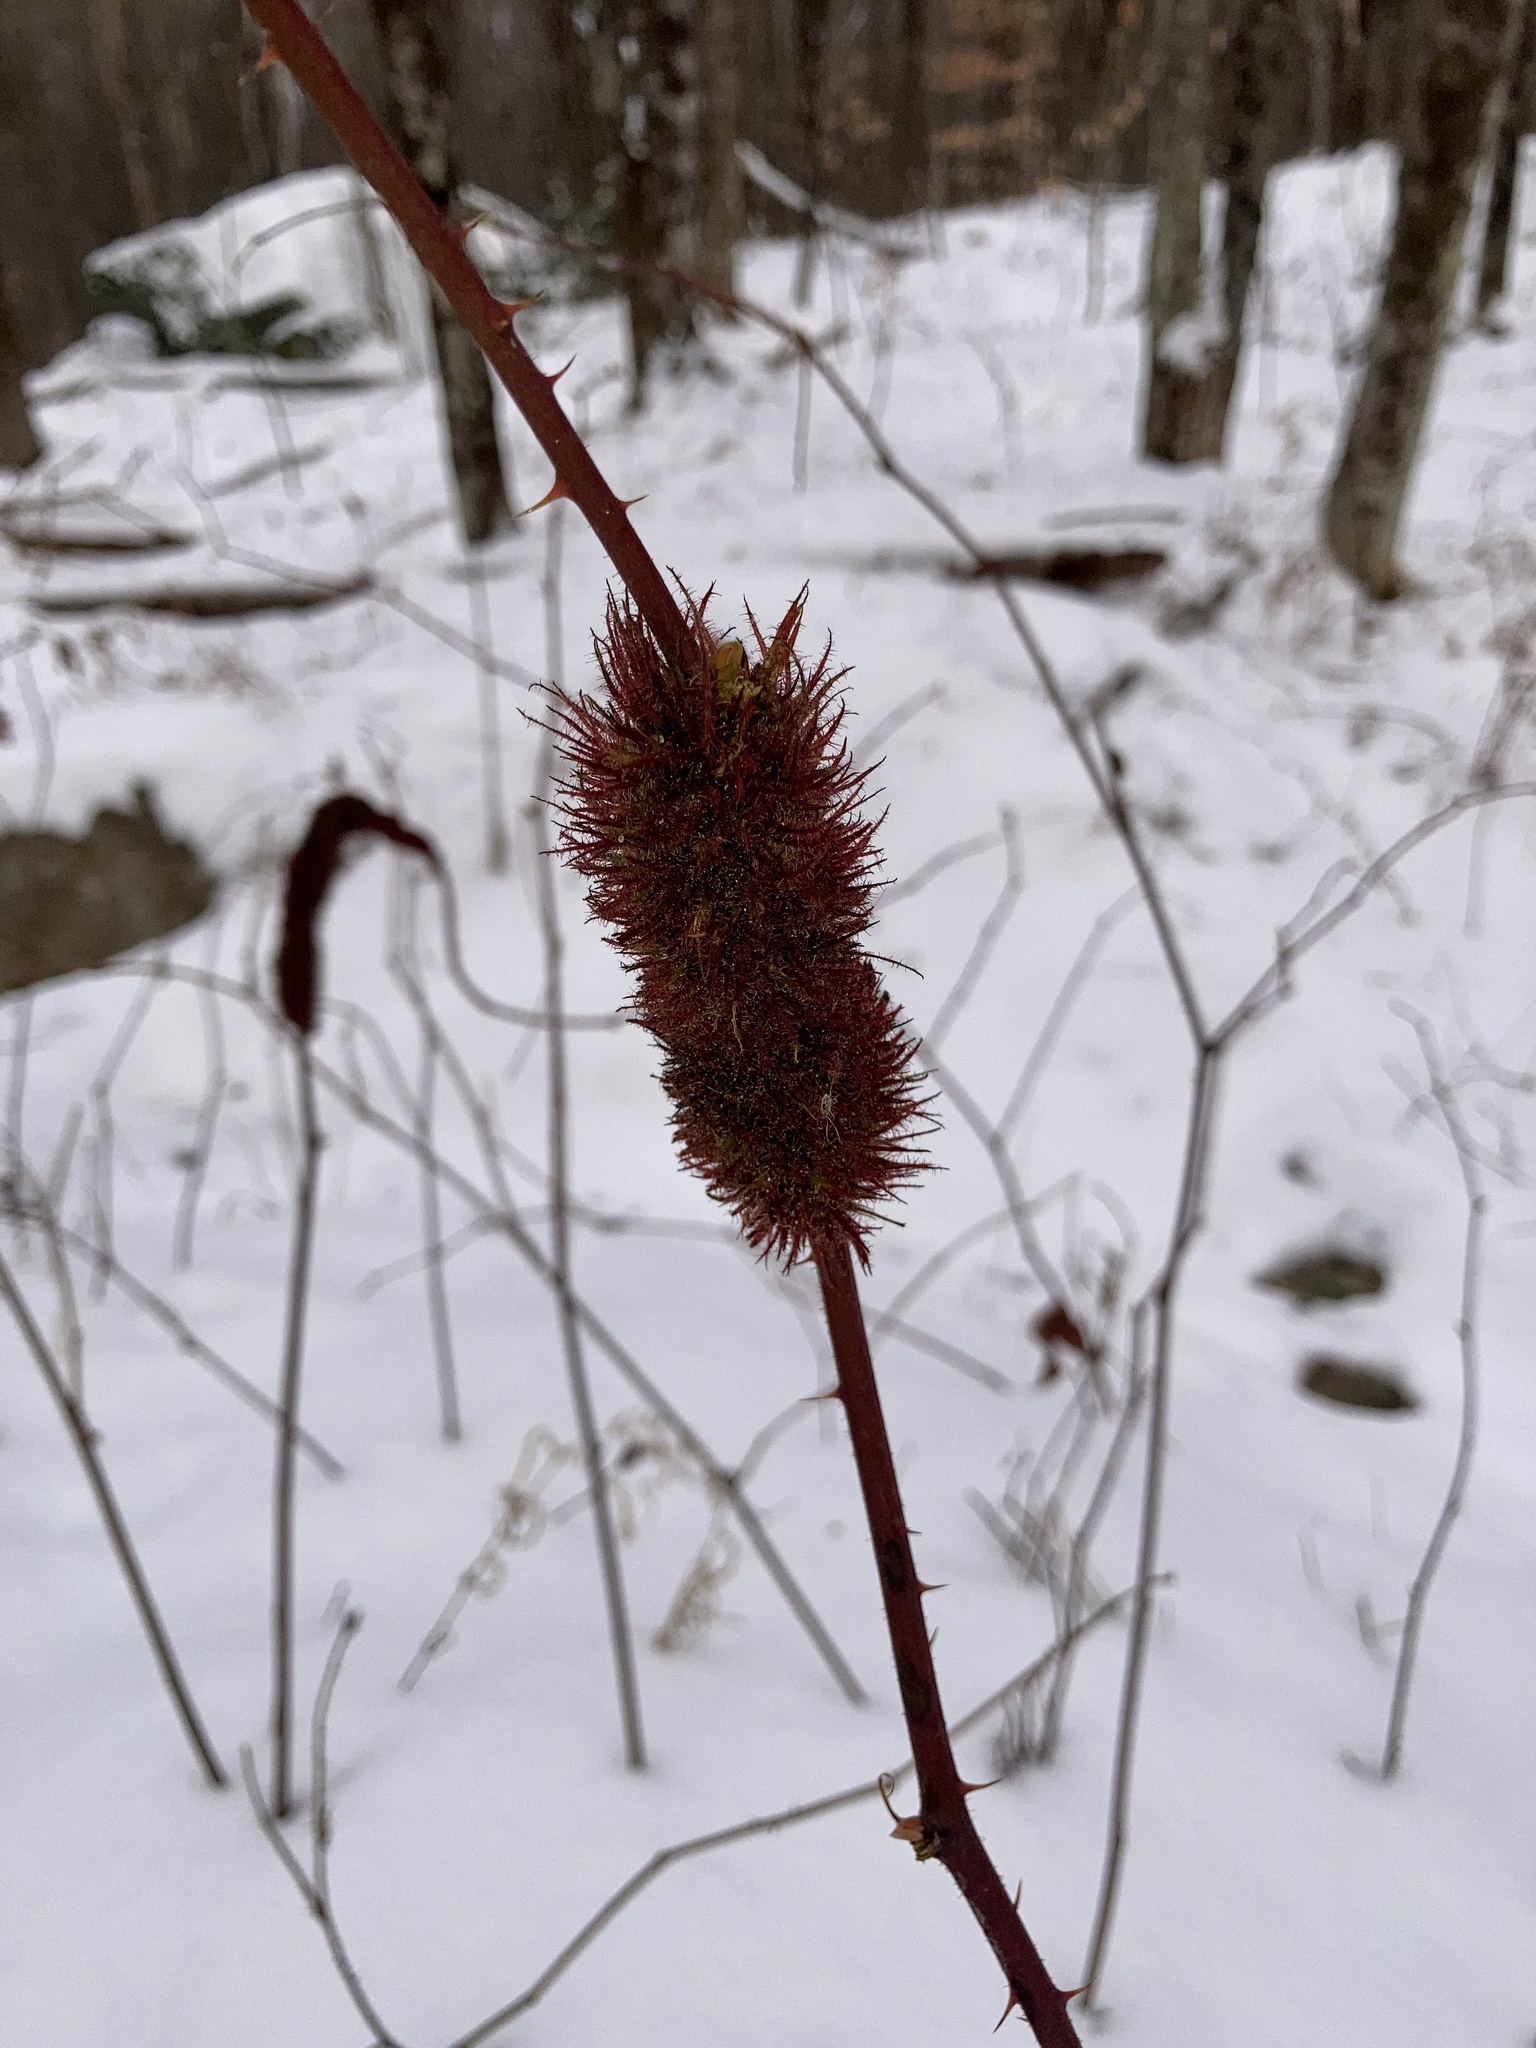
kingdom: Animalia
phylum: Arthropoda
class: Insecta
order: Hymenoptera
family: Cynipidae
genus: Diastrophus
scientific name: Diastrophus
